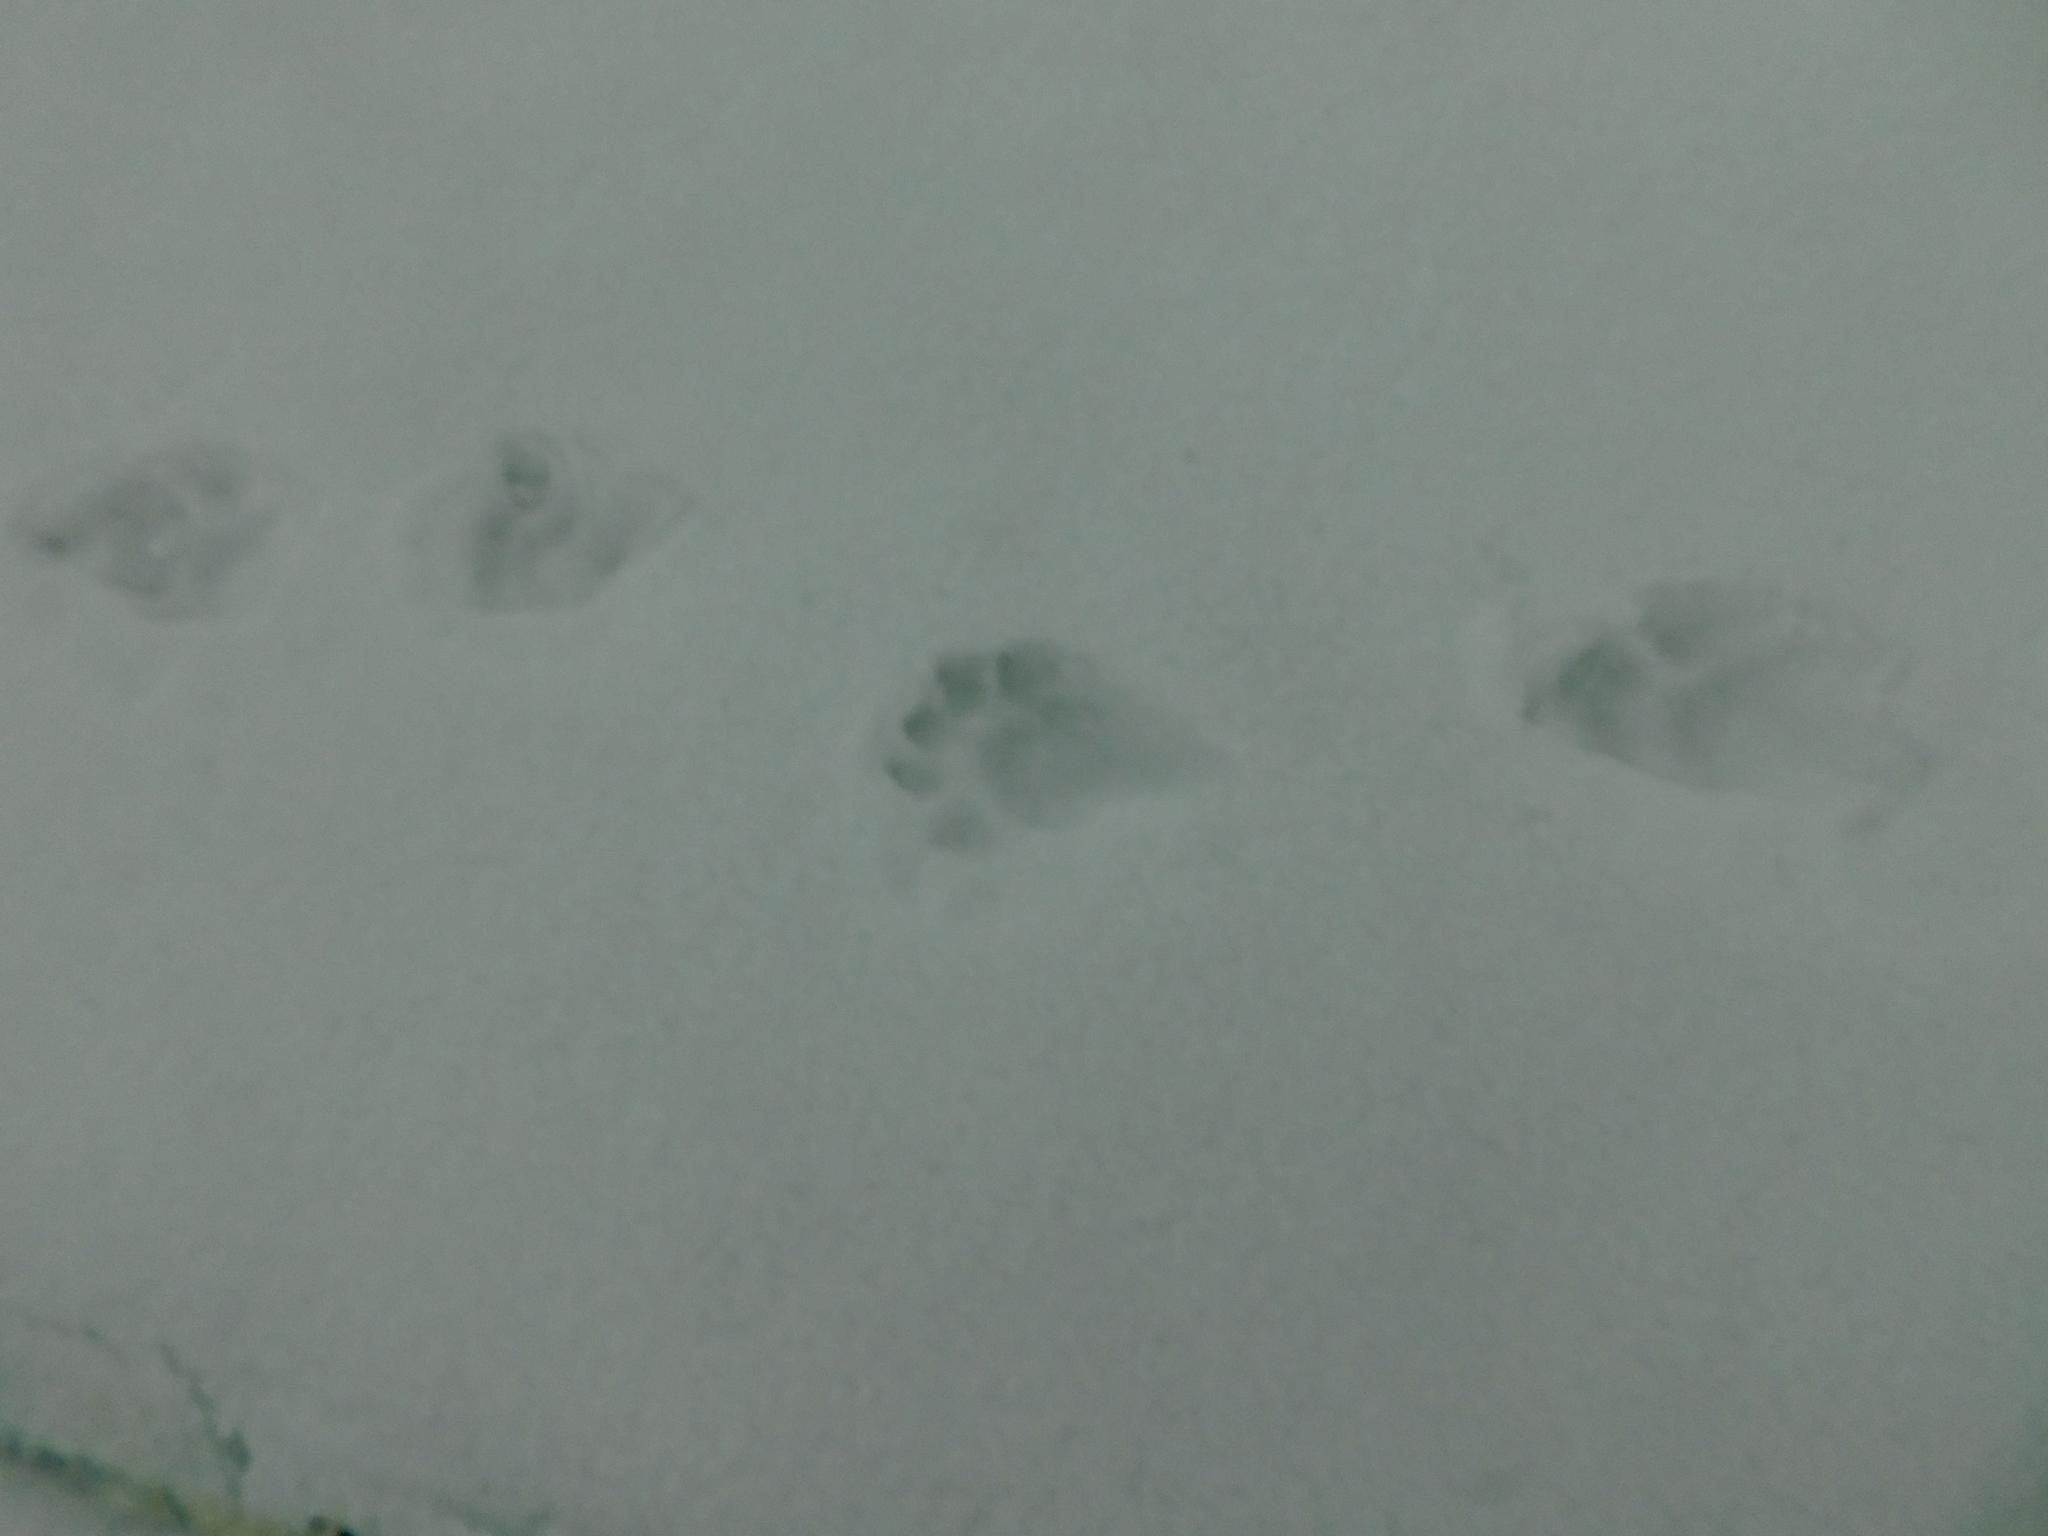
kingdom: Animalia
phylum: Chordata
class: Mammalia
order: Carnivora
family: Mustelidae
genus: Gulo
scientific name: Gulo gulo
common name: Wolverine
